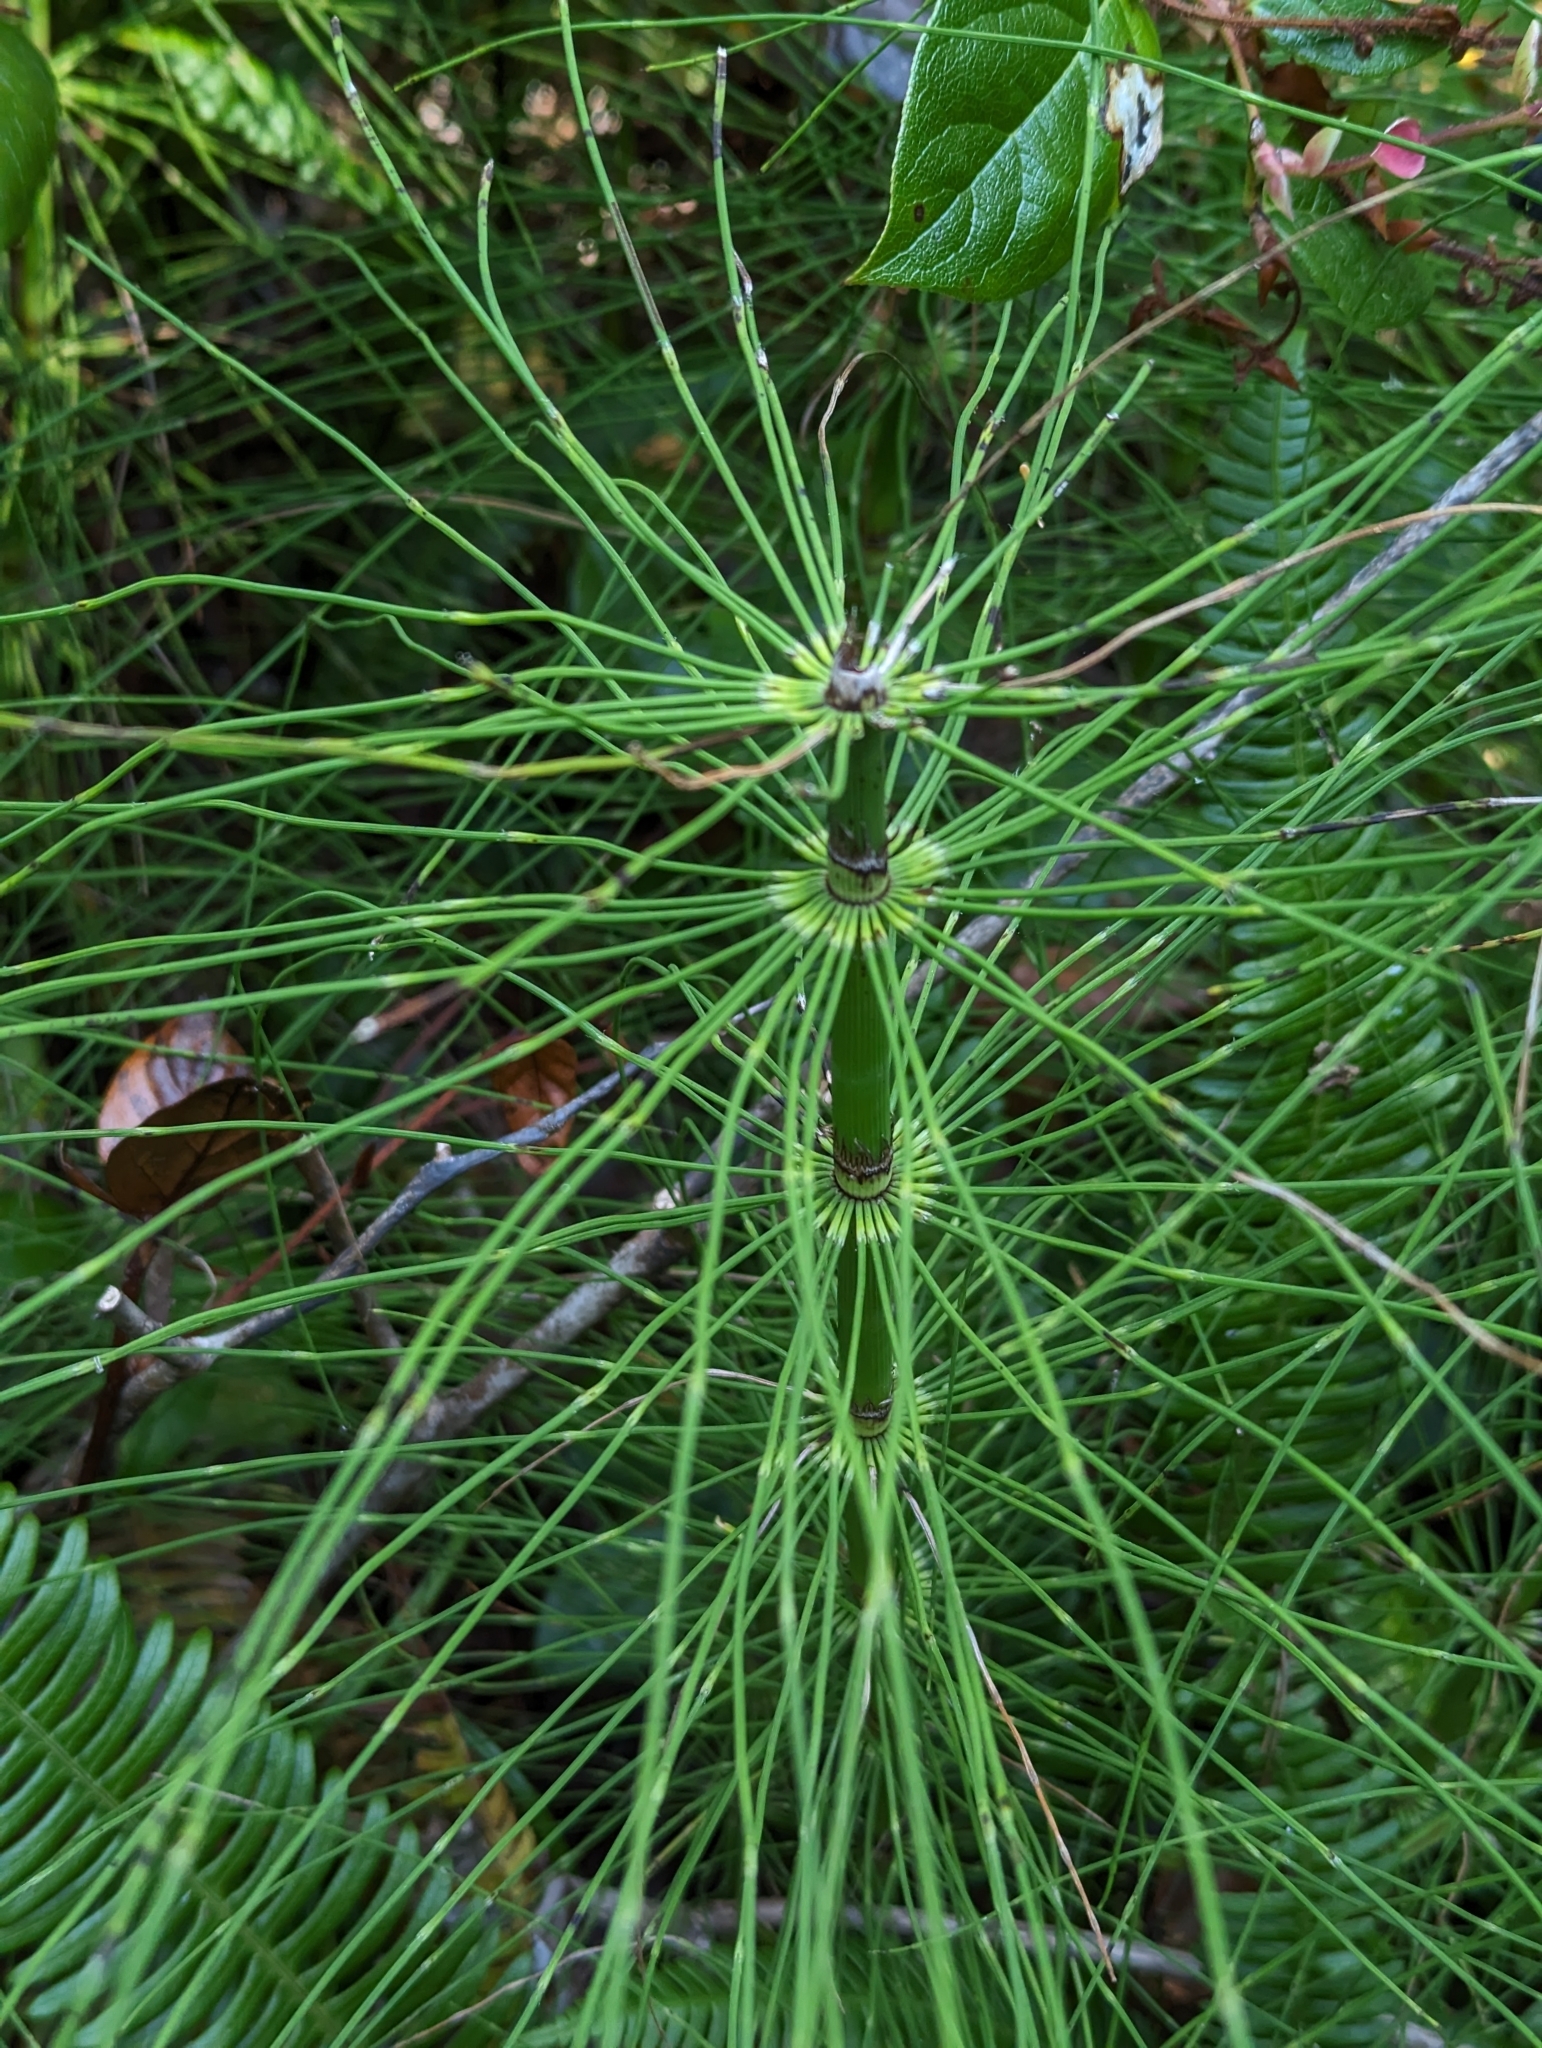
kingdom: Plantae
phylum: Tracheophyta
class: Polypodiopsida
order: Equisetales
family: Equisetaceae
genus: Equisetum
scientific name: Equisetum braunii
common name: Braun's horsetail
